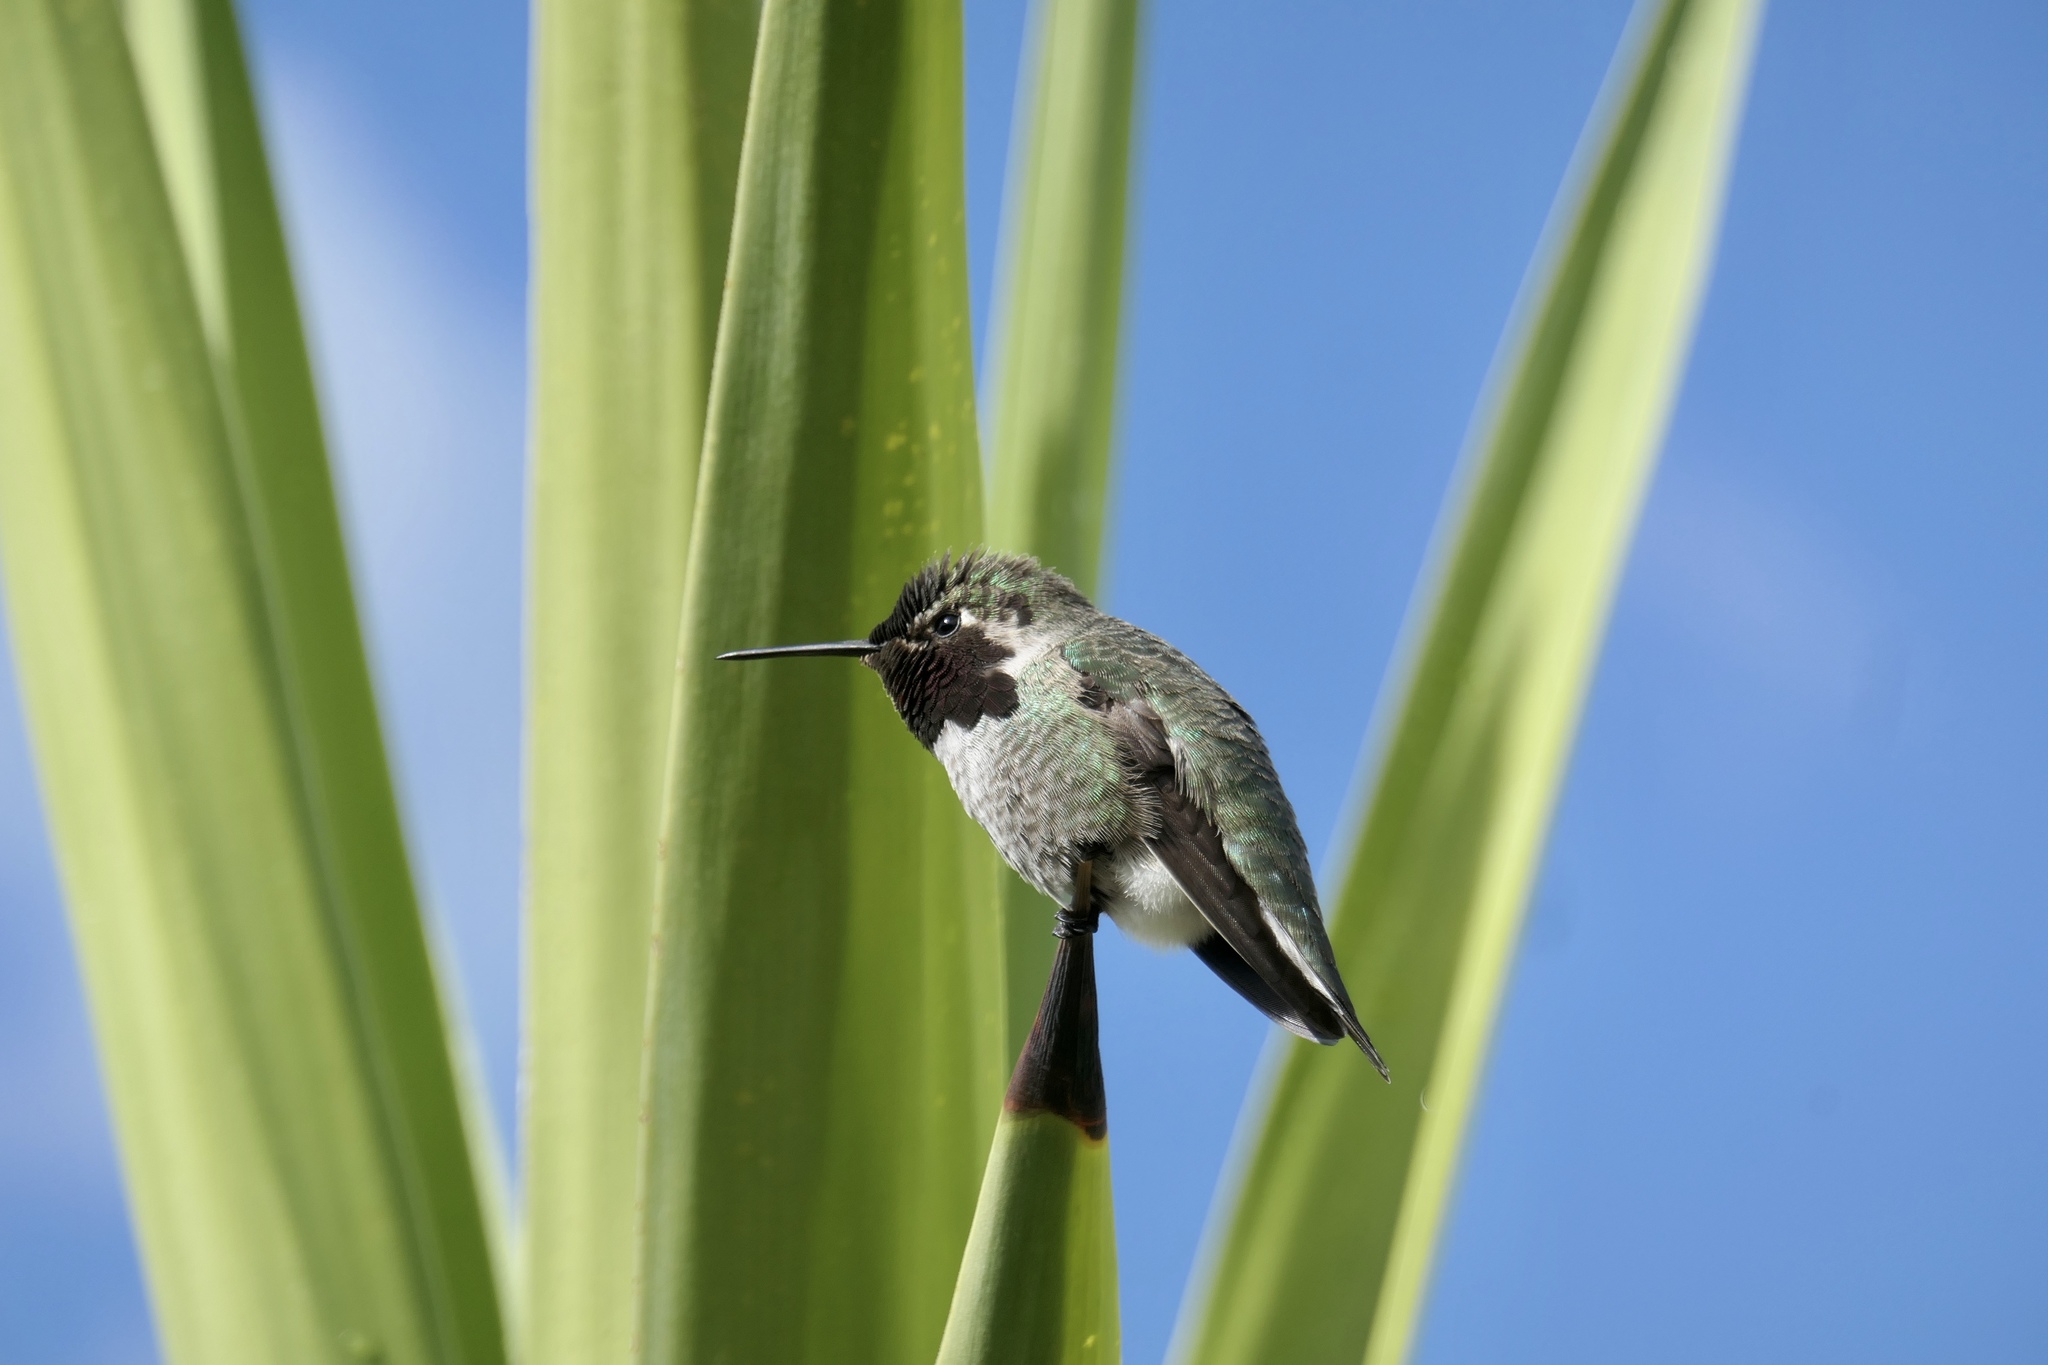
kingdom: Animalia
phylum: Chordata
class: Aves
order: Apodiformes
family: Trochilidae
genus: Calypte
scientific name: Calypte anna
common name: Anna's hummingbird
